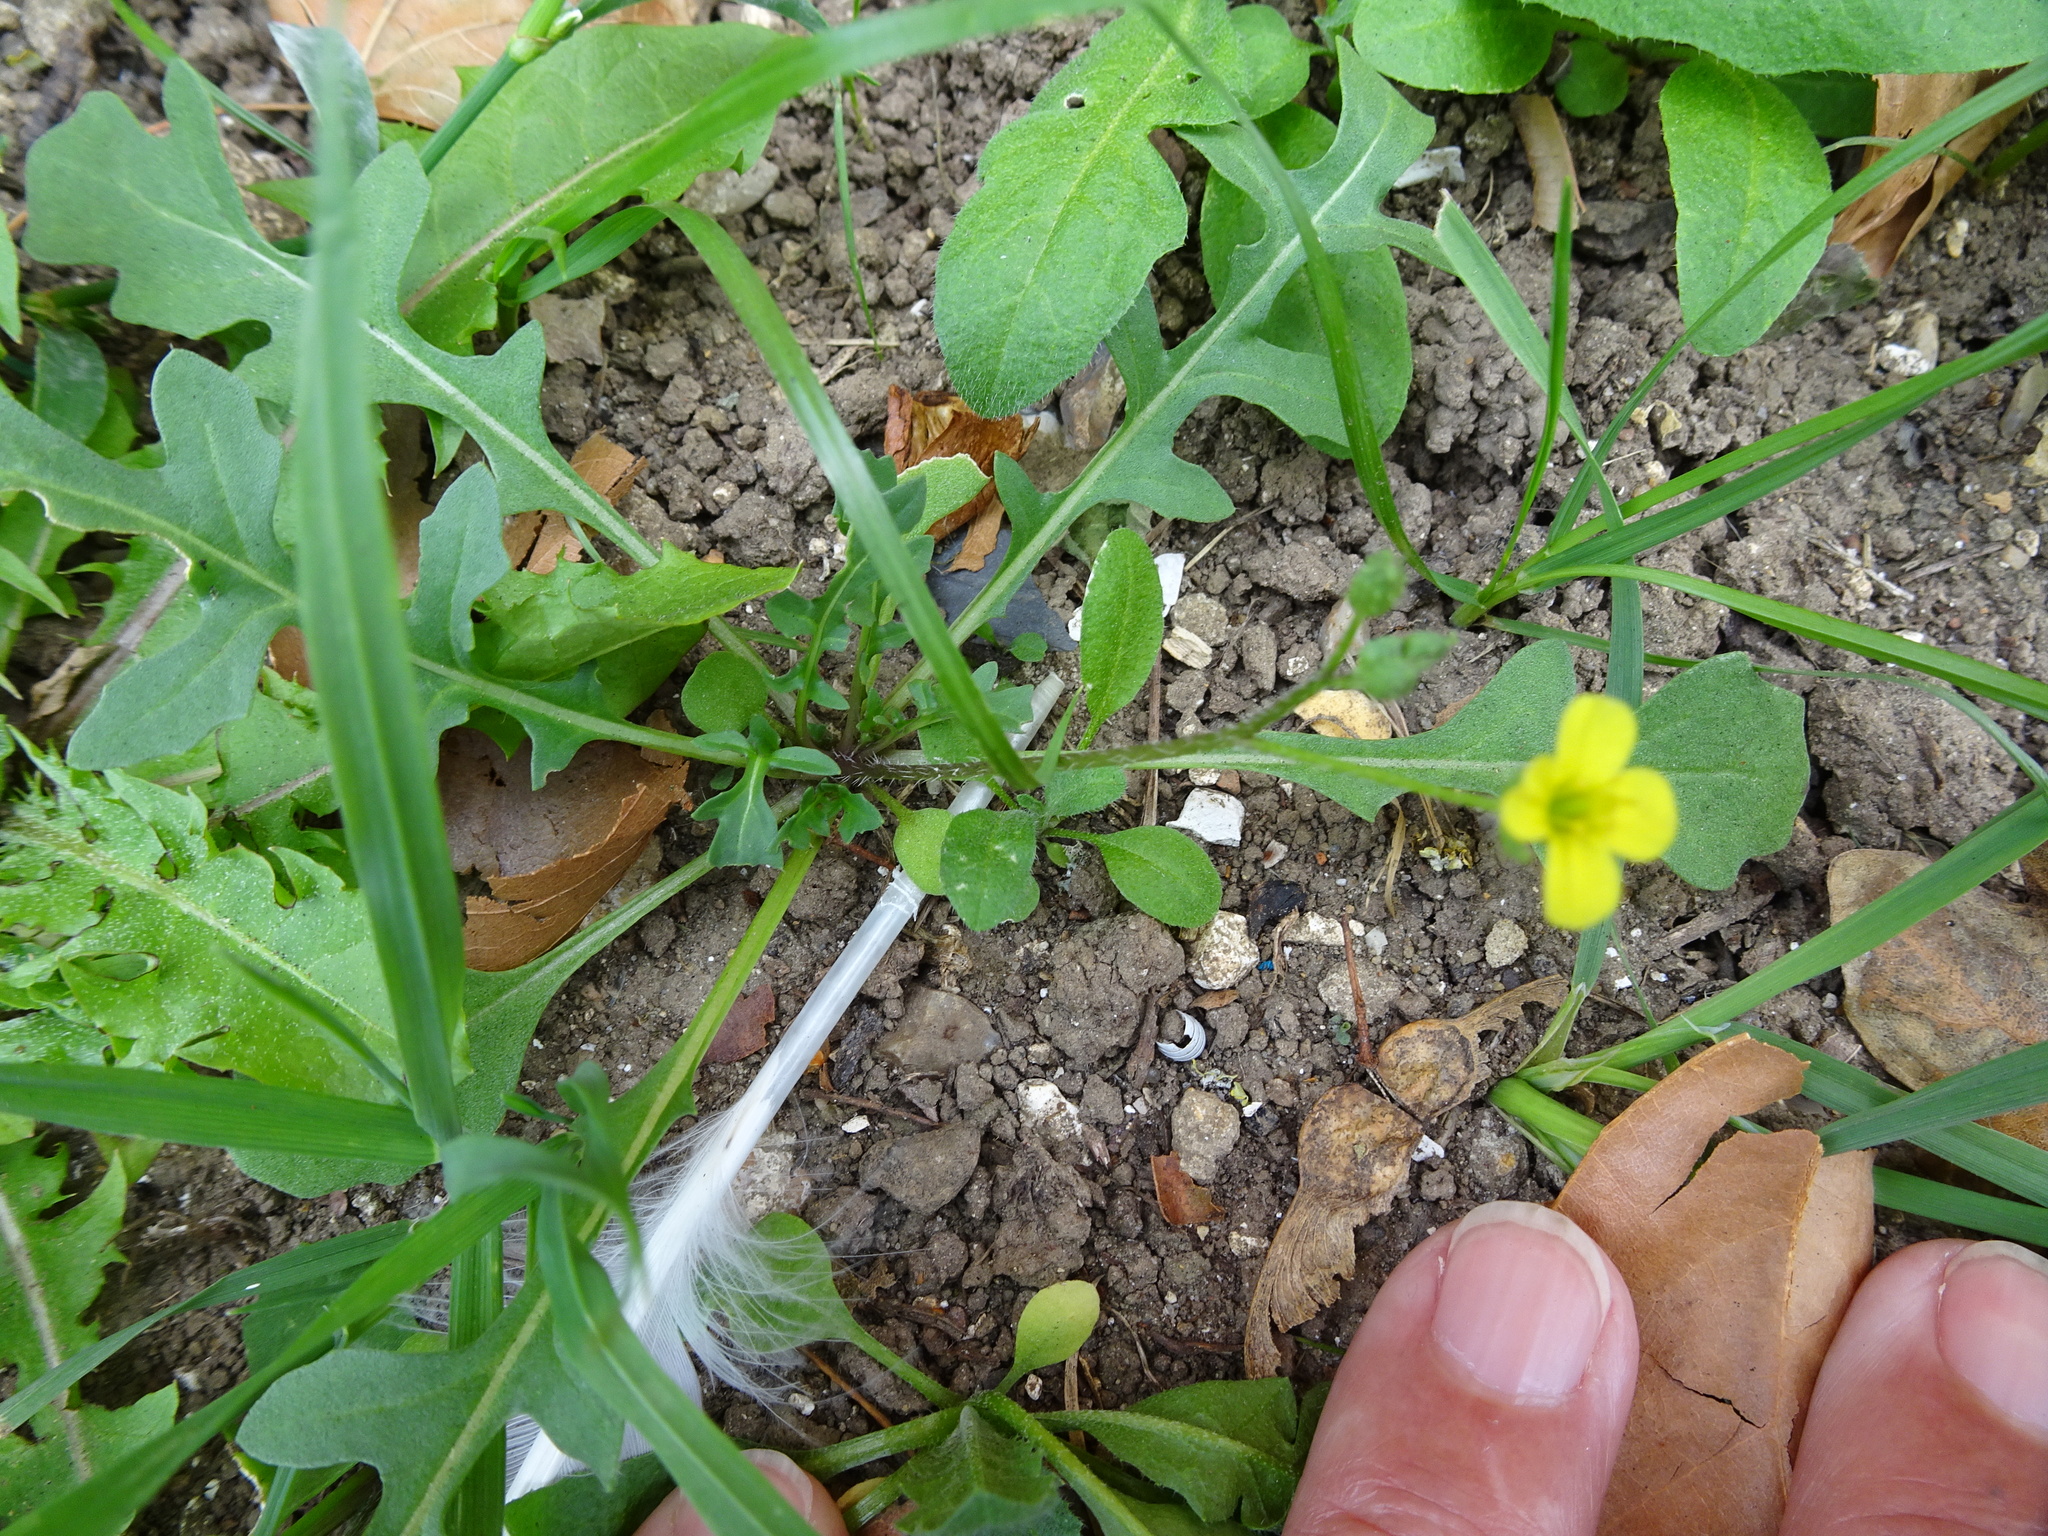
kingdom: Plantae
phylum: Tracheophyta
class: Magnoliopsida
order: Brassicales
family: Brassicaceae
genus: Diplotaxis
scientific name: Diplotaxis muralis
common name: Annual wall-rocket
